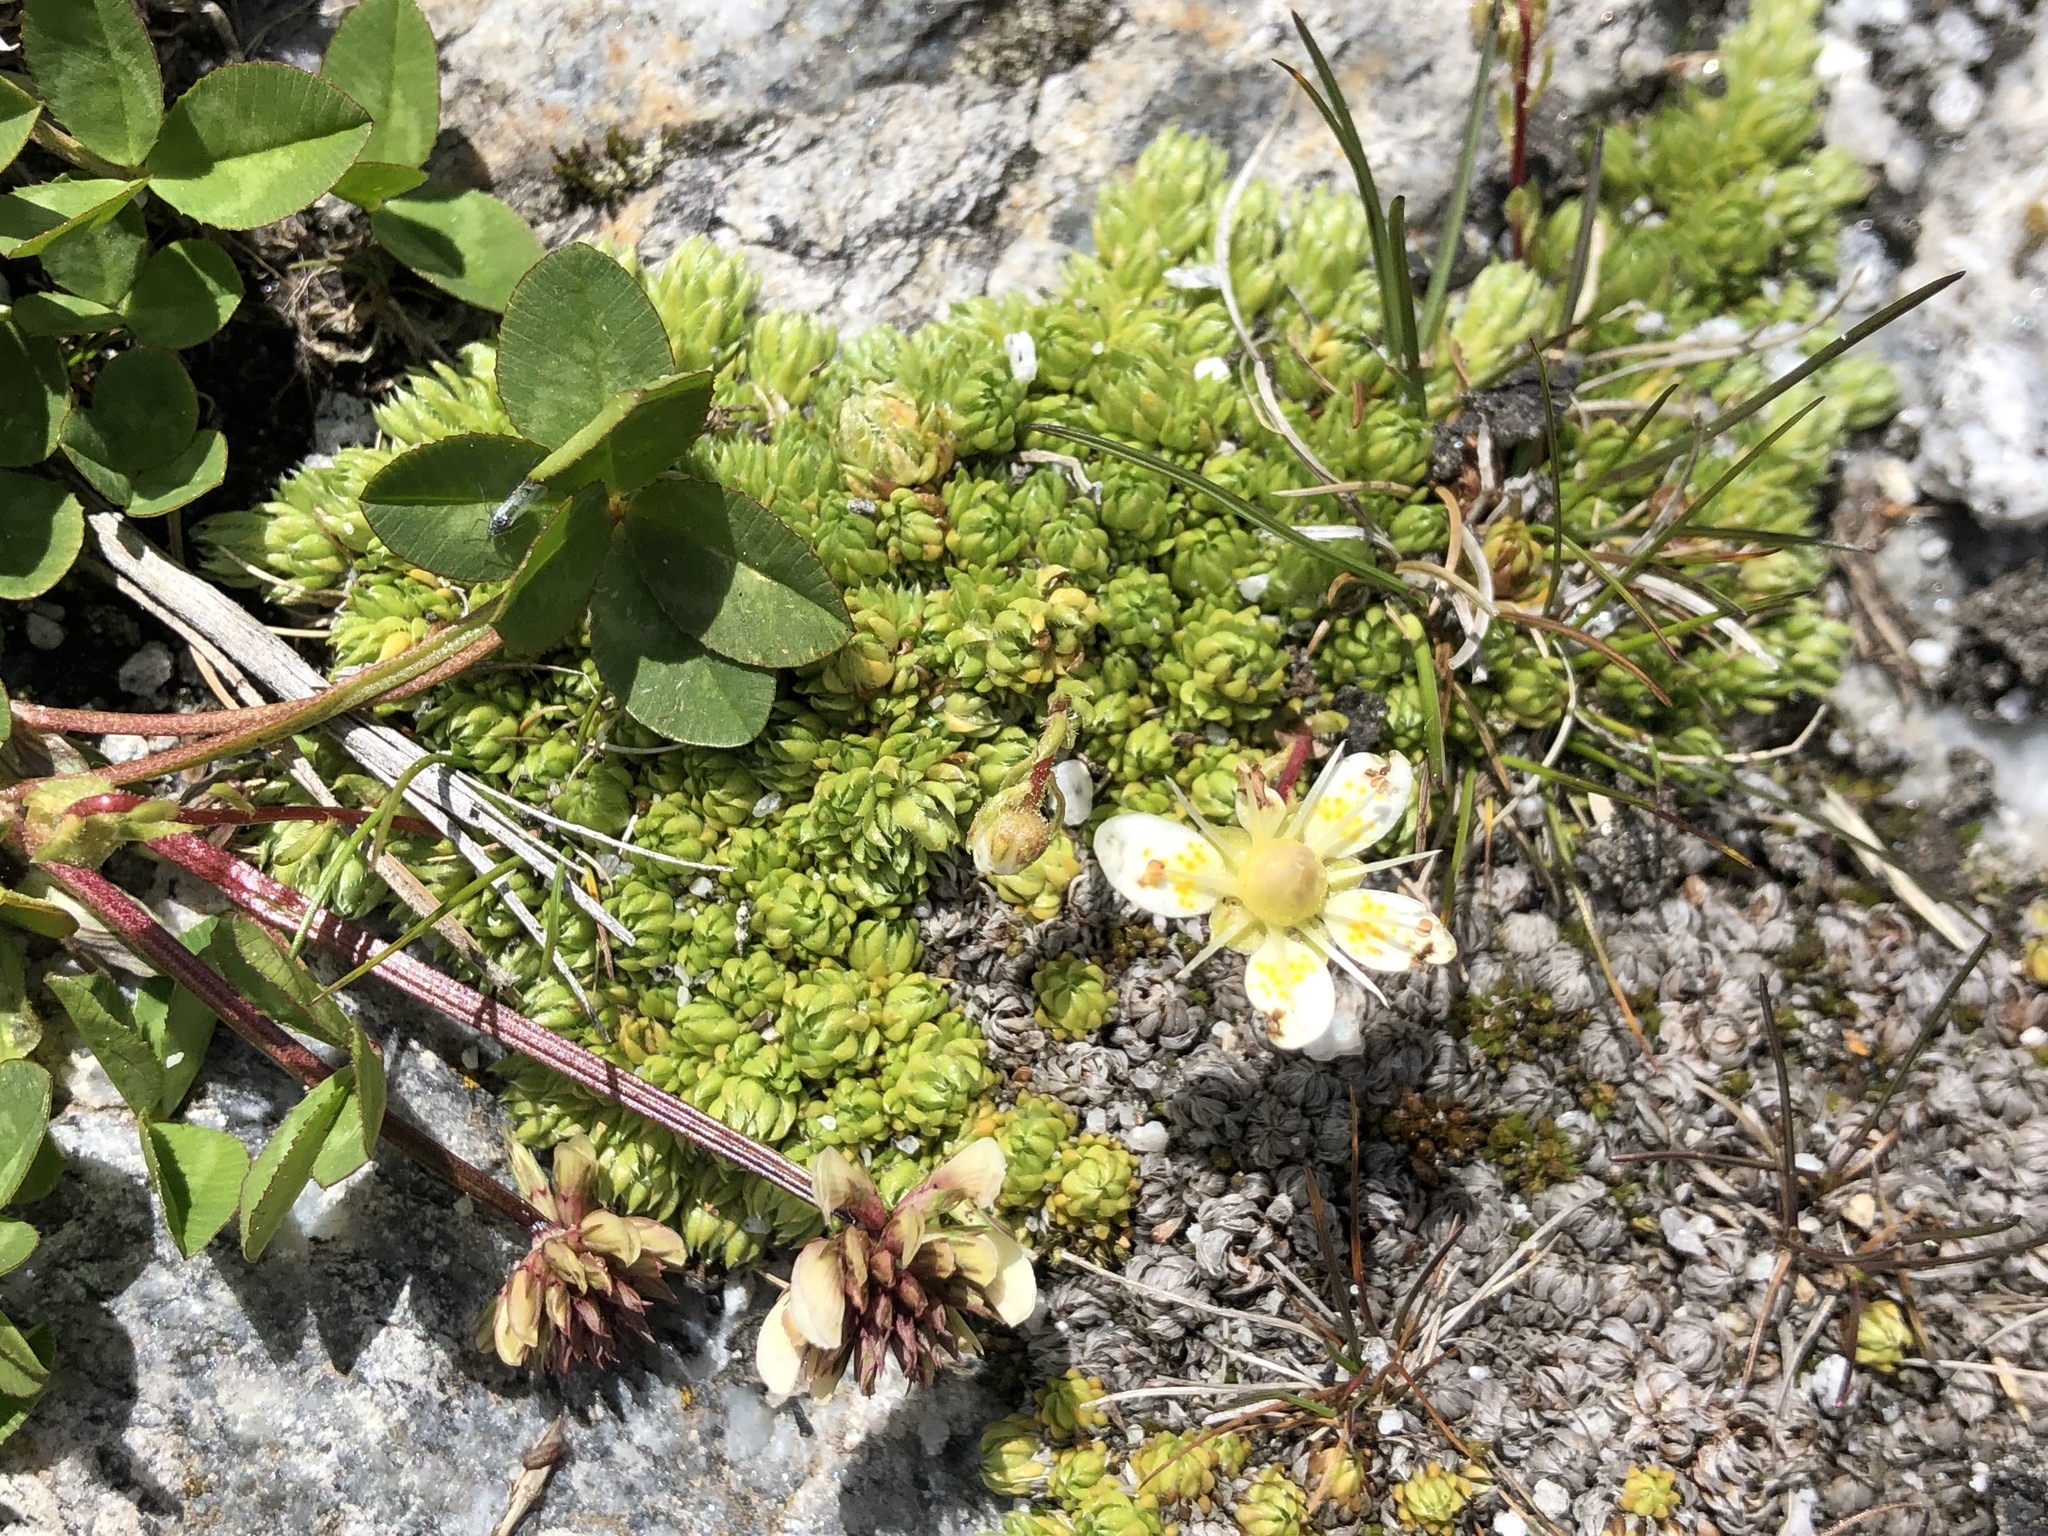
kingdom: Plantae
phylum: Tracheophyta
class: Magnoliopsida
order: Saxifragales
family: Saxifragaceae
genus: Saxifraga
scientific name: Saxifraga bryoides
